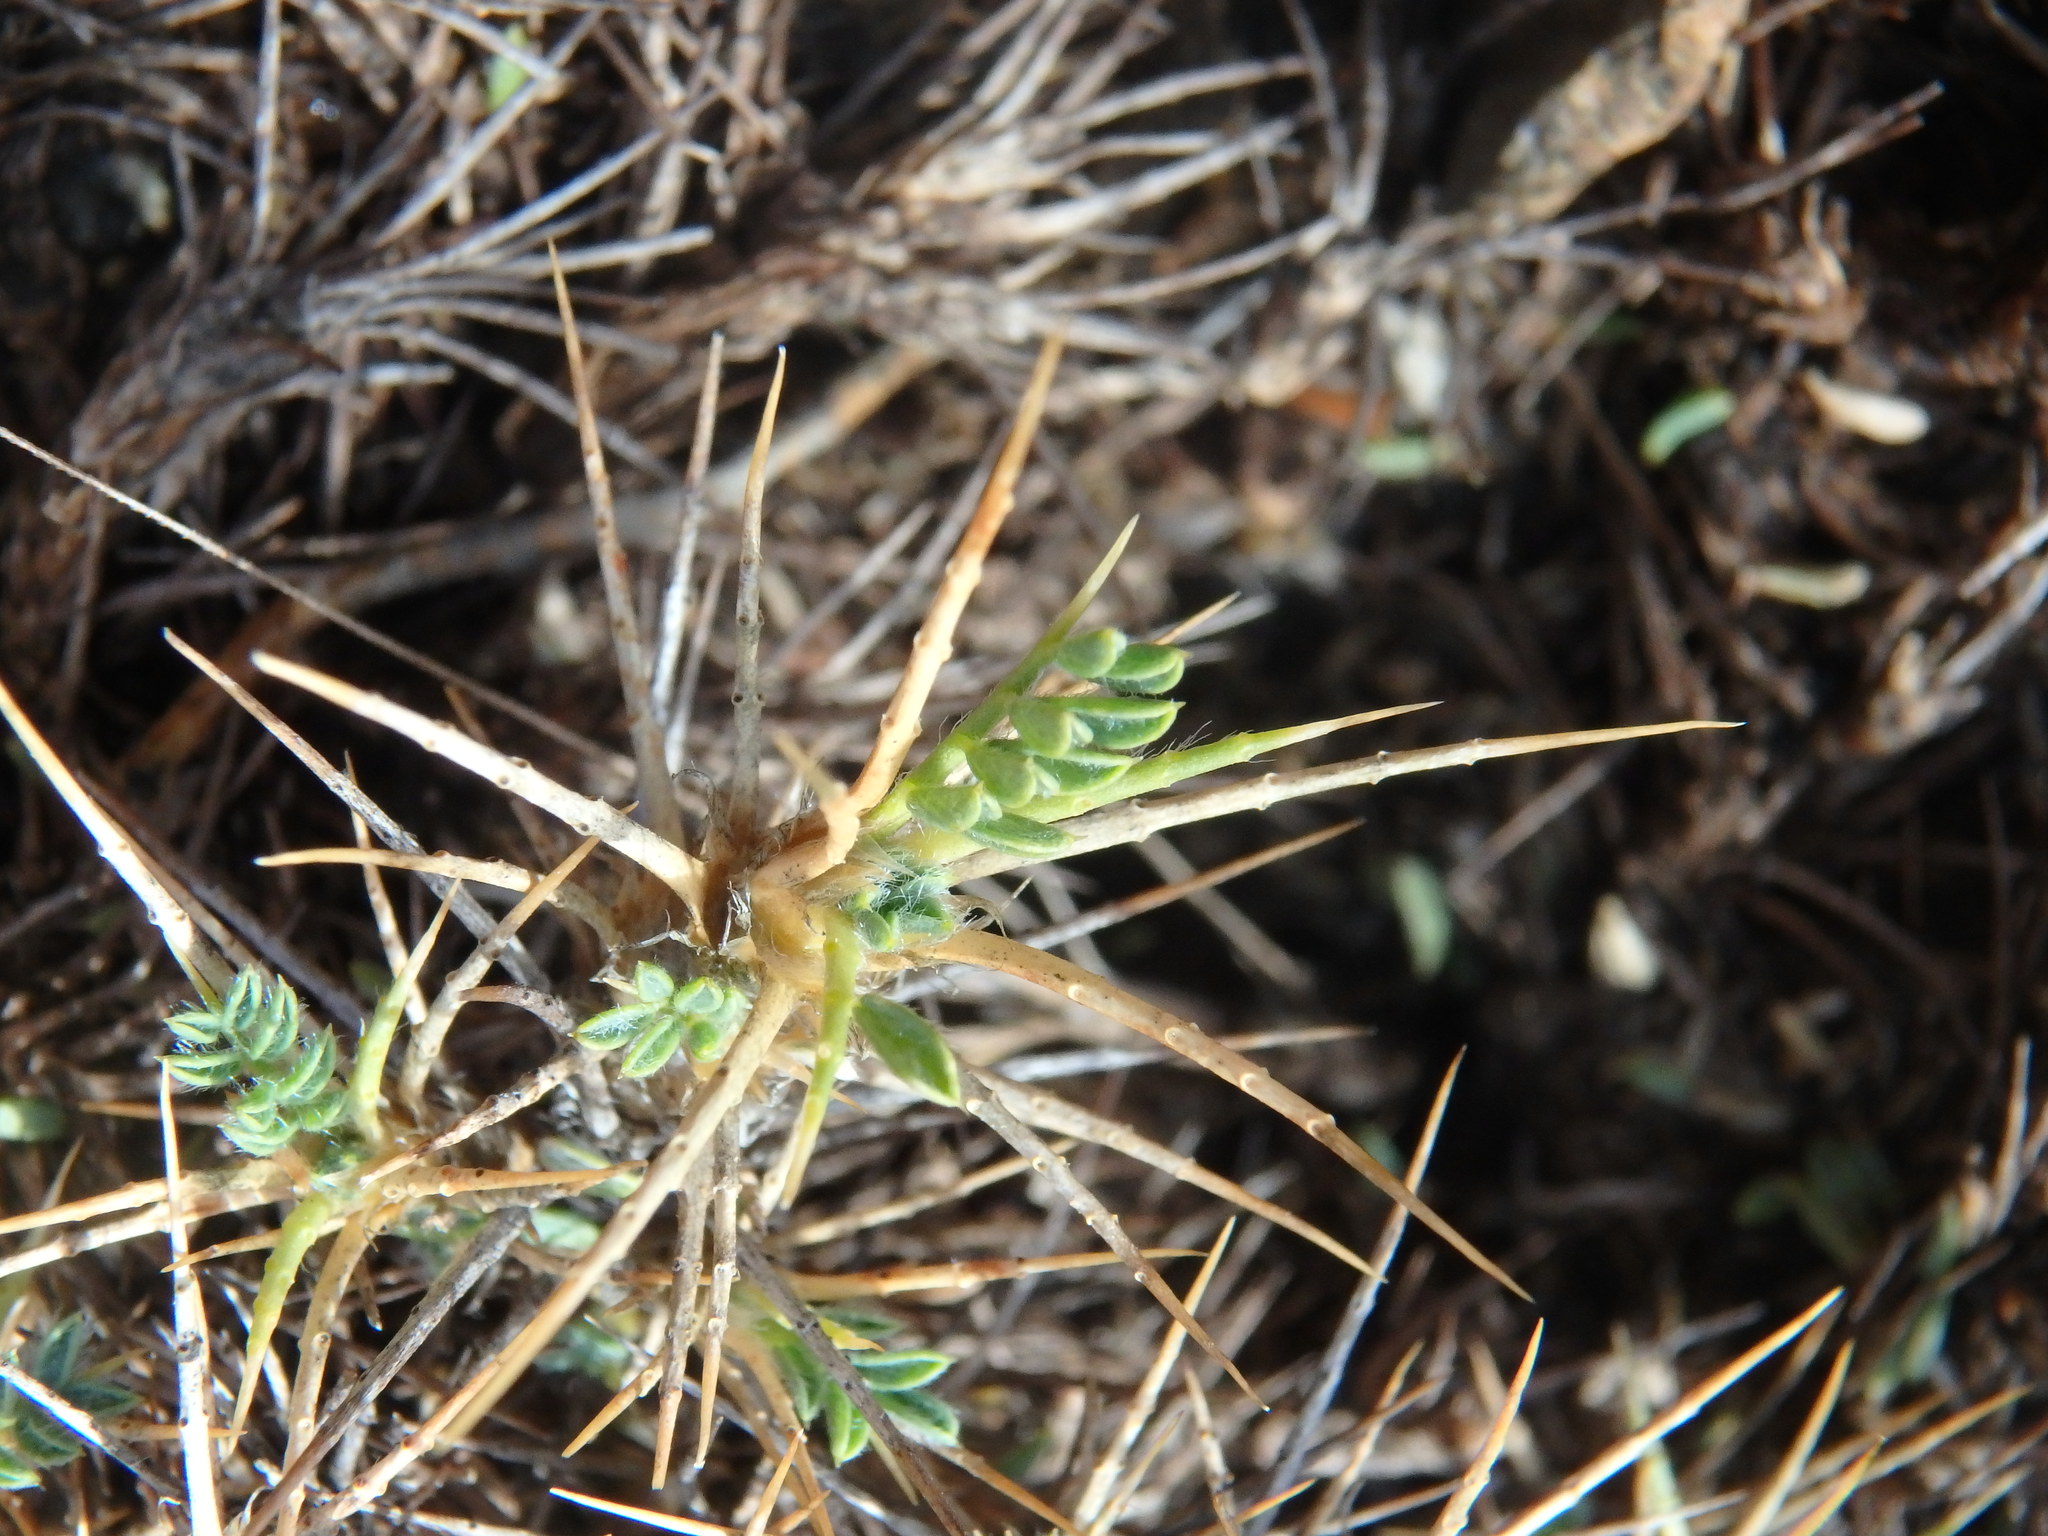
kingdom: Plantae
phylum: Tracheophyta
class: Magnoliopsida
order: Fabales
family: Fabaceae
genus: Astragalus
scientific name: Astragalus echinus
